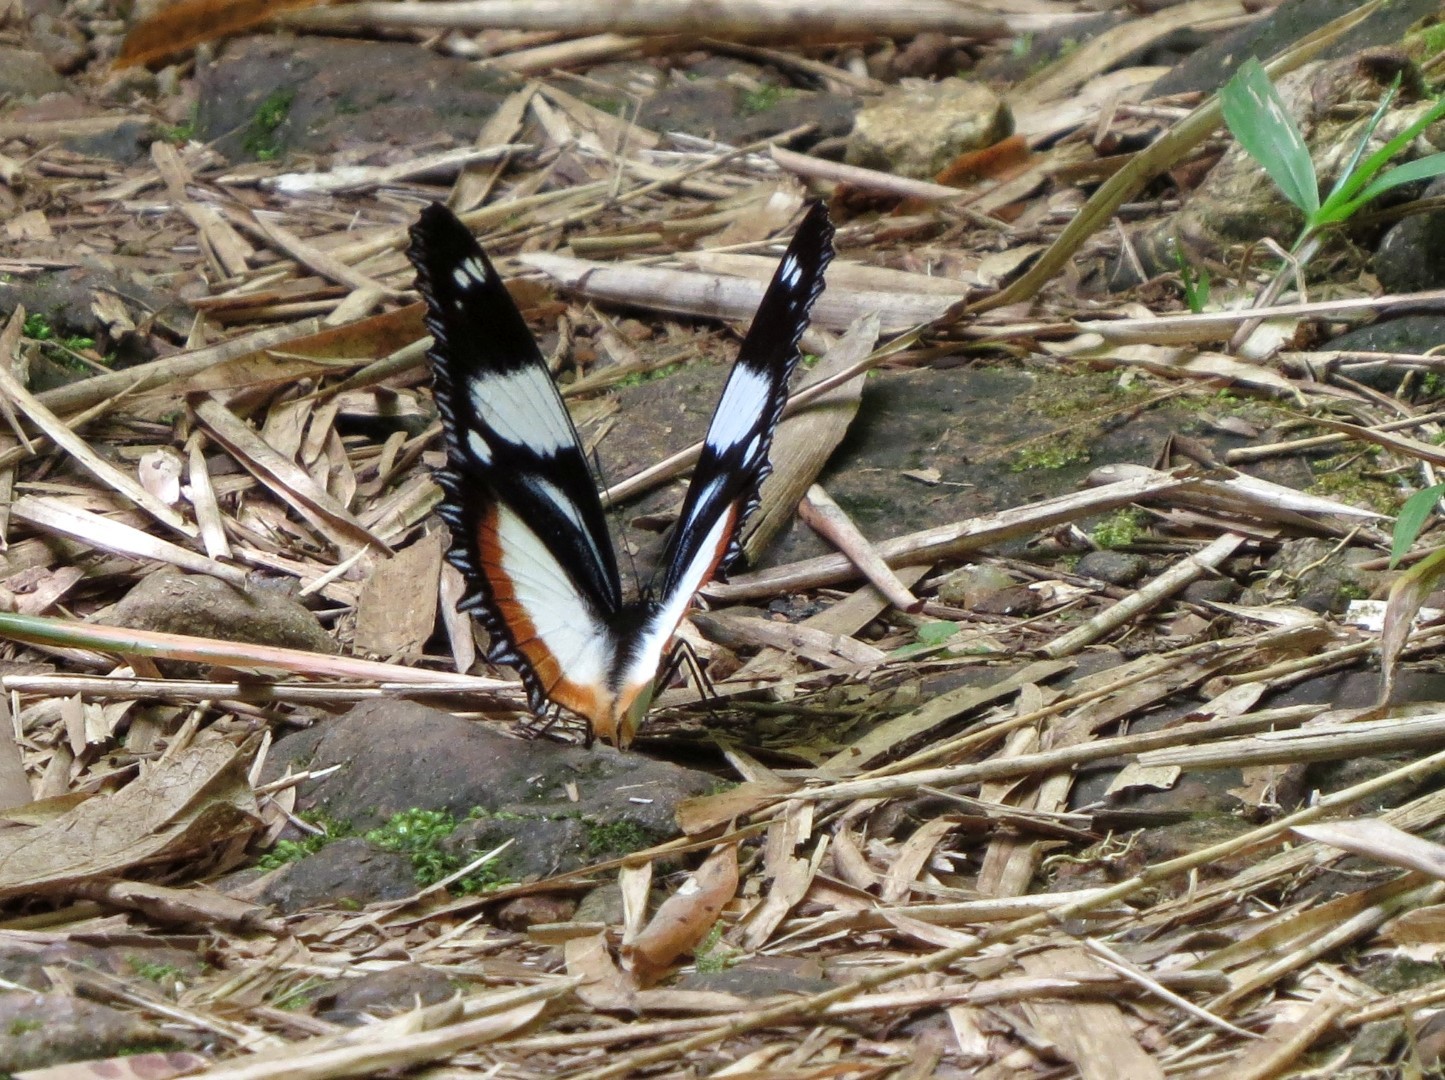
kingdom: Animalia
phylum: Arthropoda
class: Insecta
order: Lepidoptera
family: Nymphalidae
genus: Hypolimnas
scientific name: Hypolimnas dexithea
